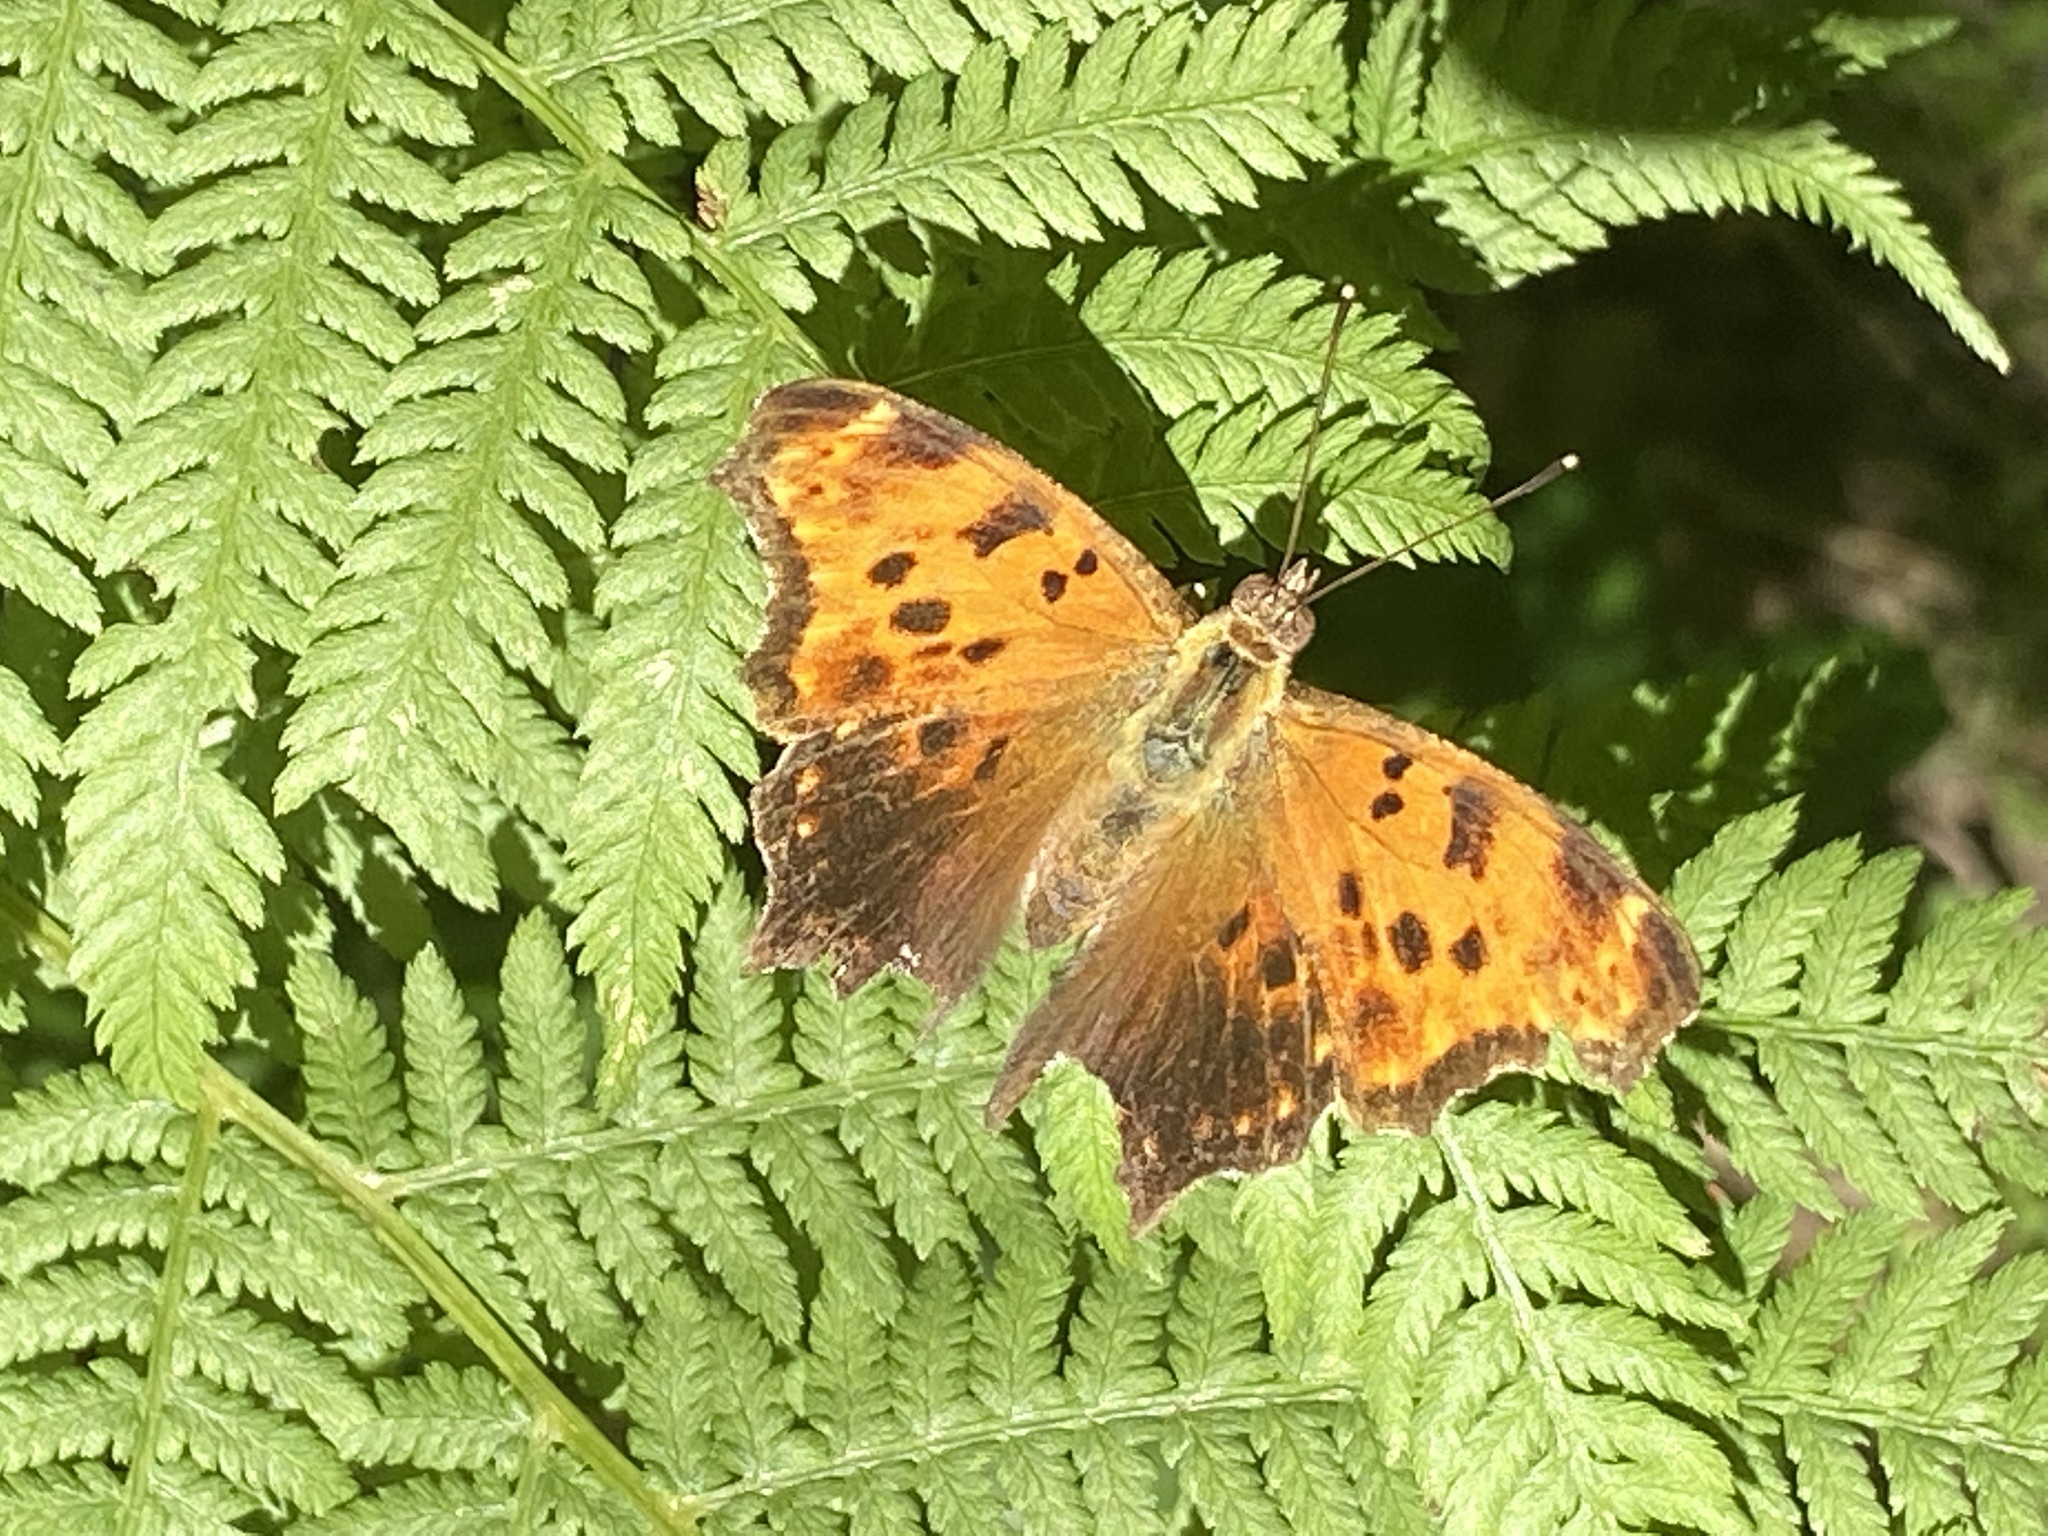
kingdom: Animalia
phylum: Arthropoda
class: Insecta
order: Lepidoptera
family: Nymphalidae
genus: Polygonia
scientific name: Polygonia comma
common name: Eastern comma
